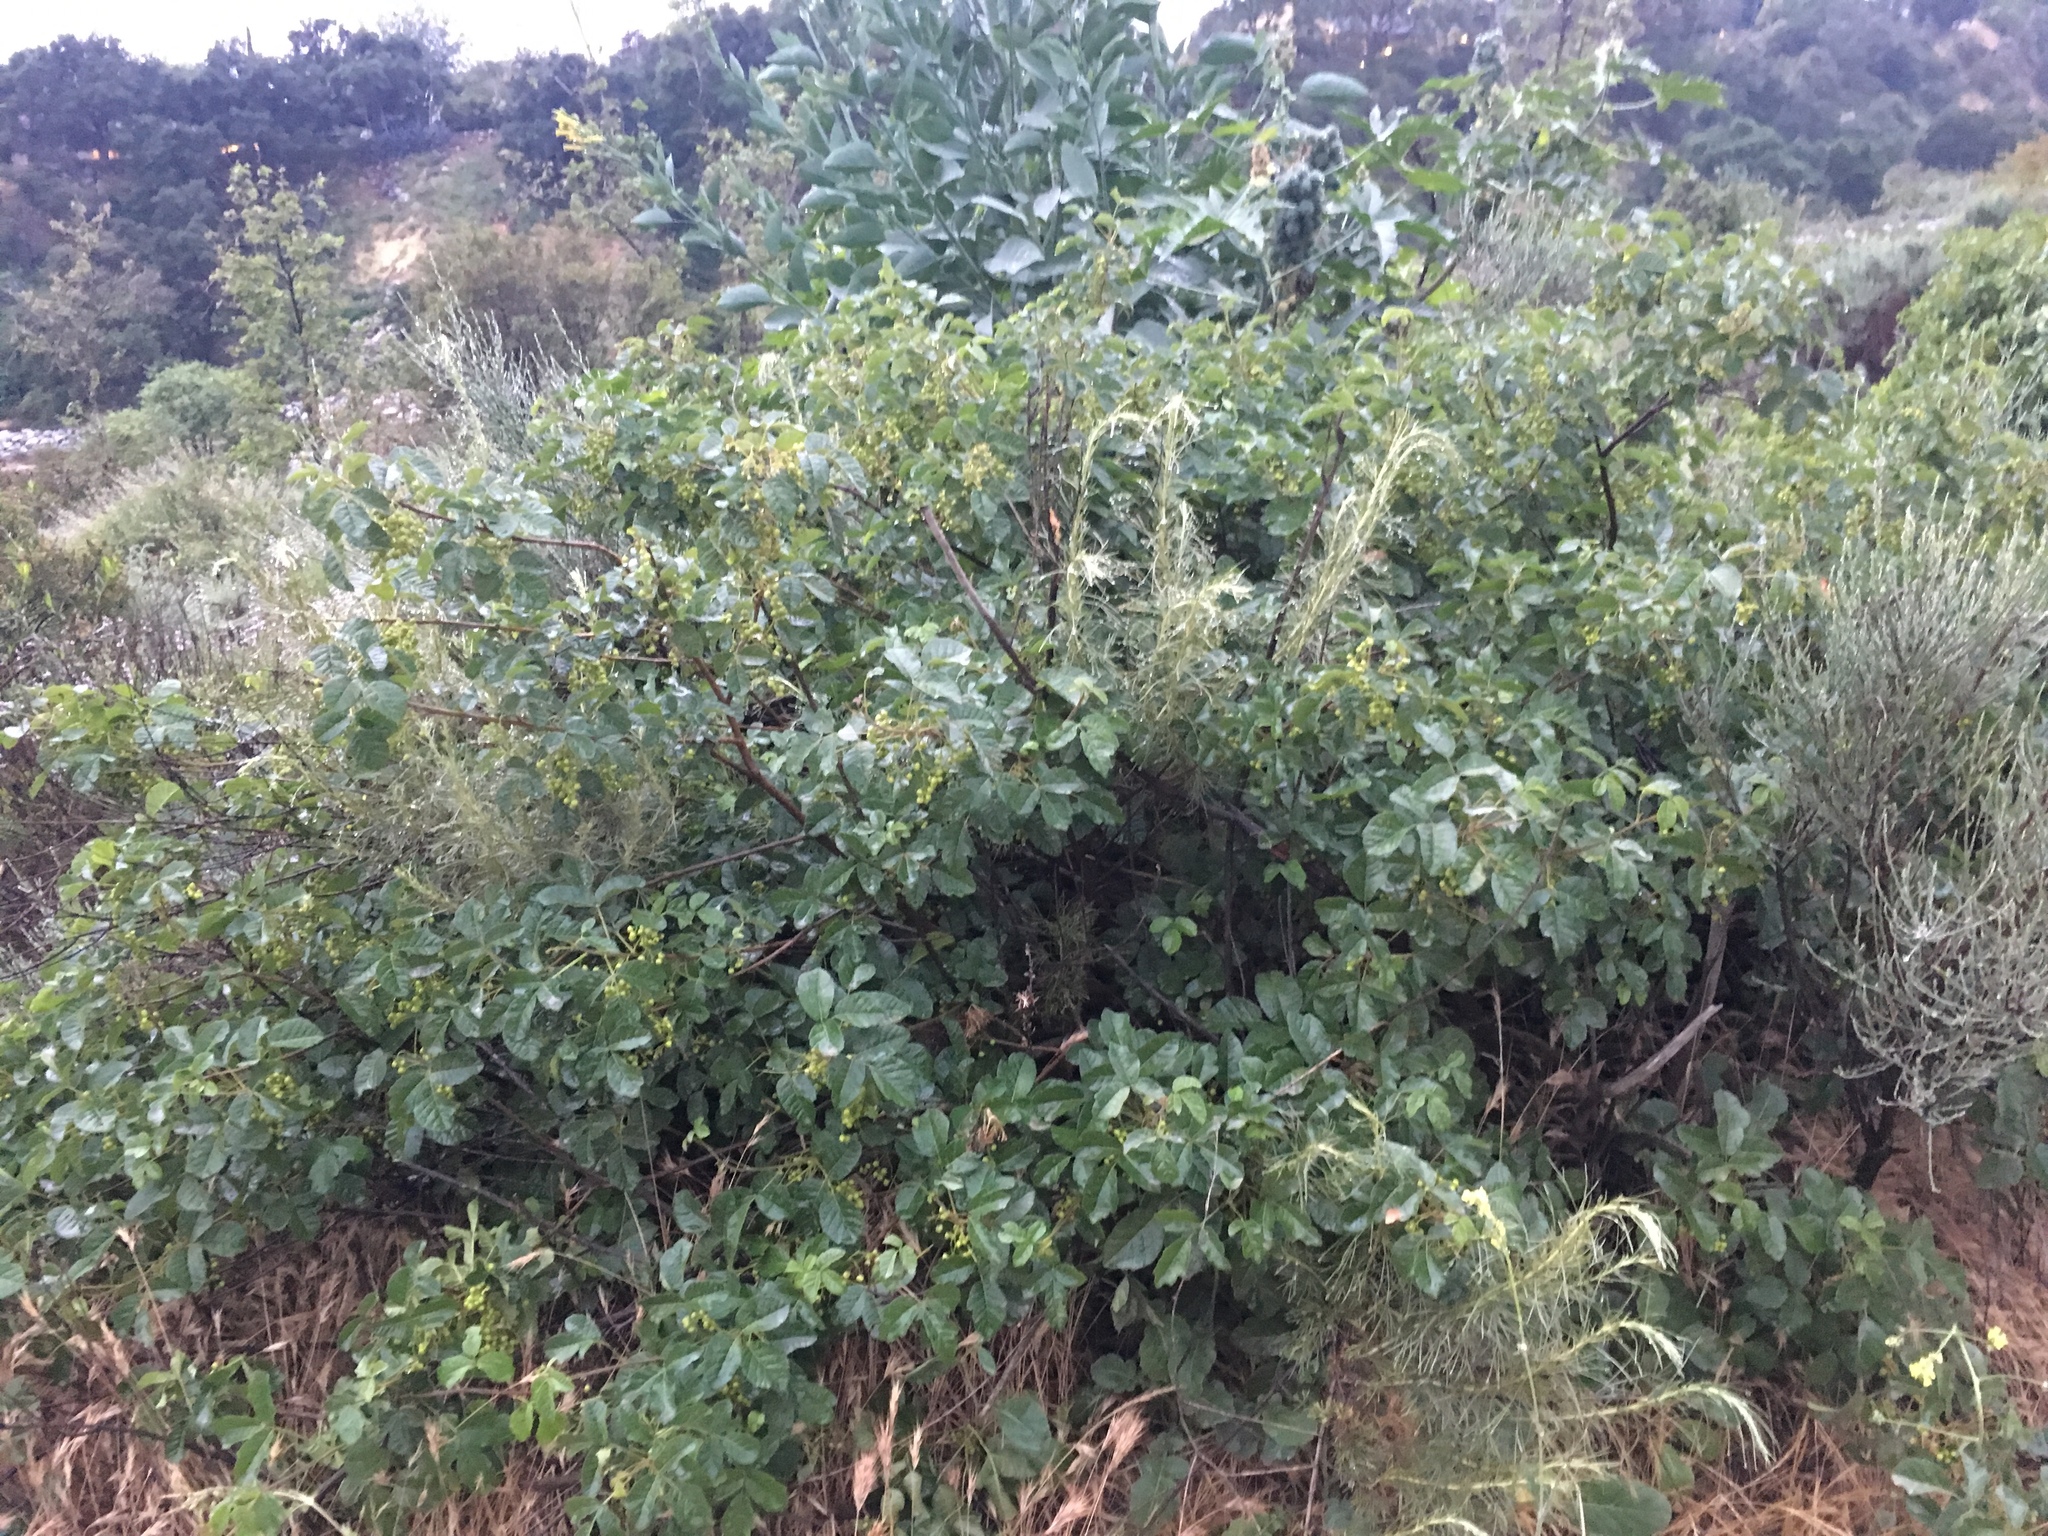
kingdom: Plantae
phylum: Tracheophyta
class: Magnoliopsida
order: Sapindales
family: Anacardiaceae
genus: Toxicodendron
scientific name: Toxicodendron diversilobum
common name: Pacific poison-oak
